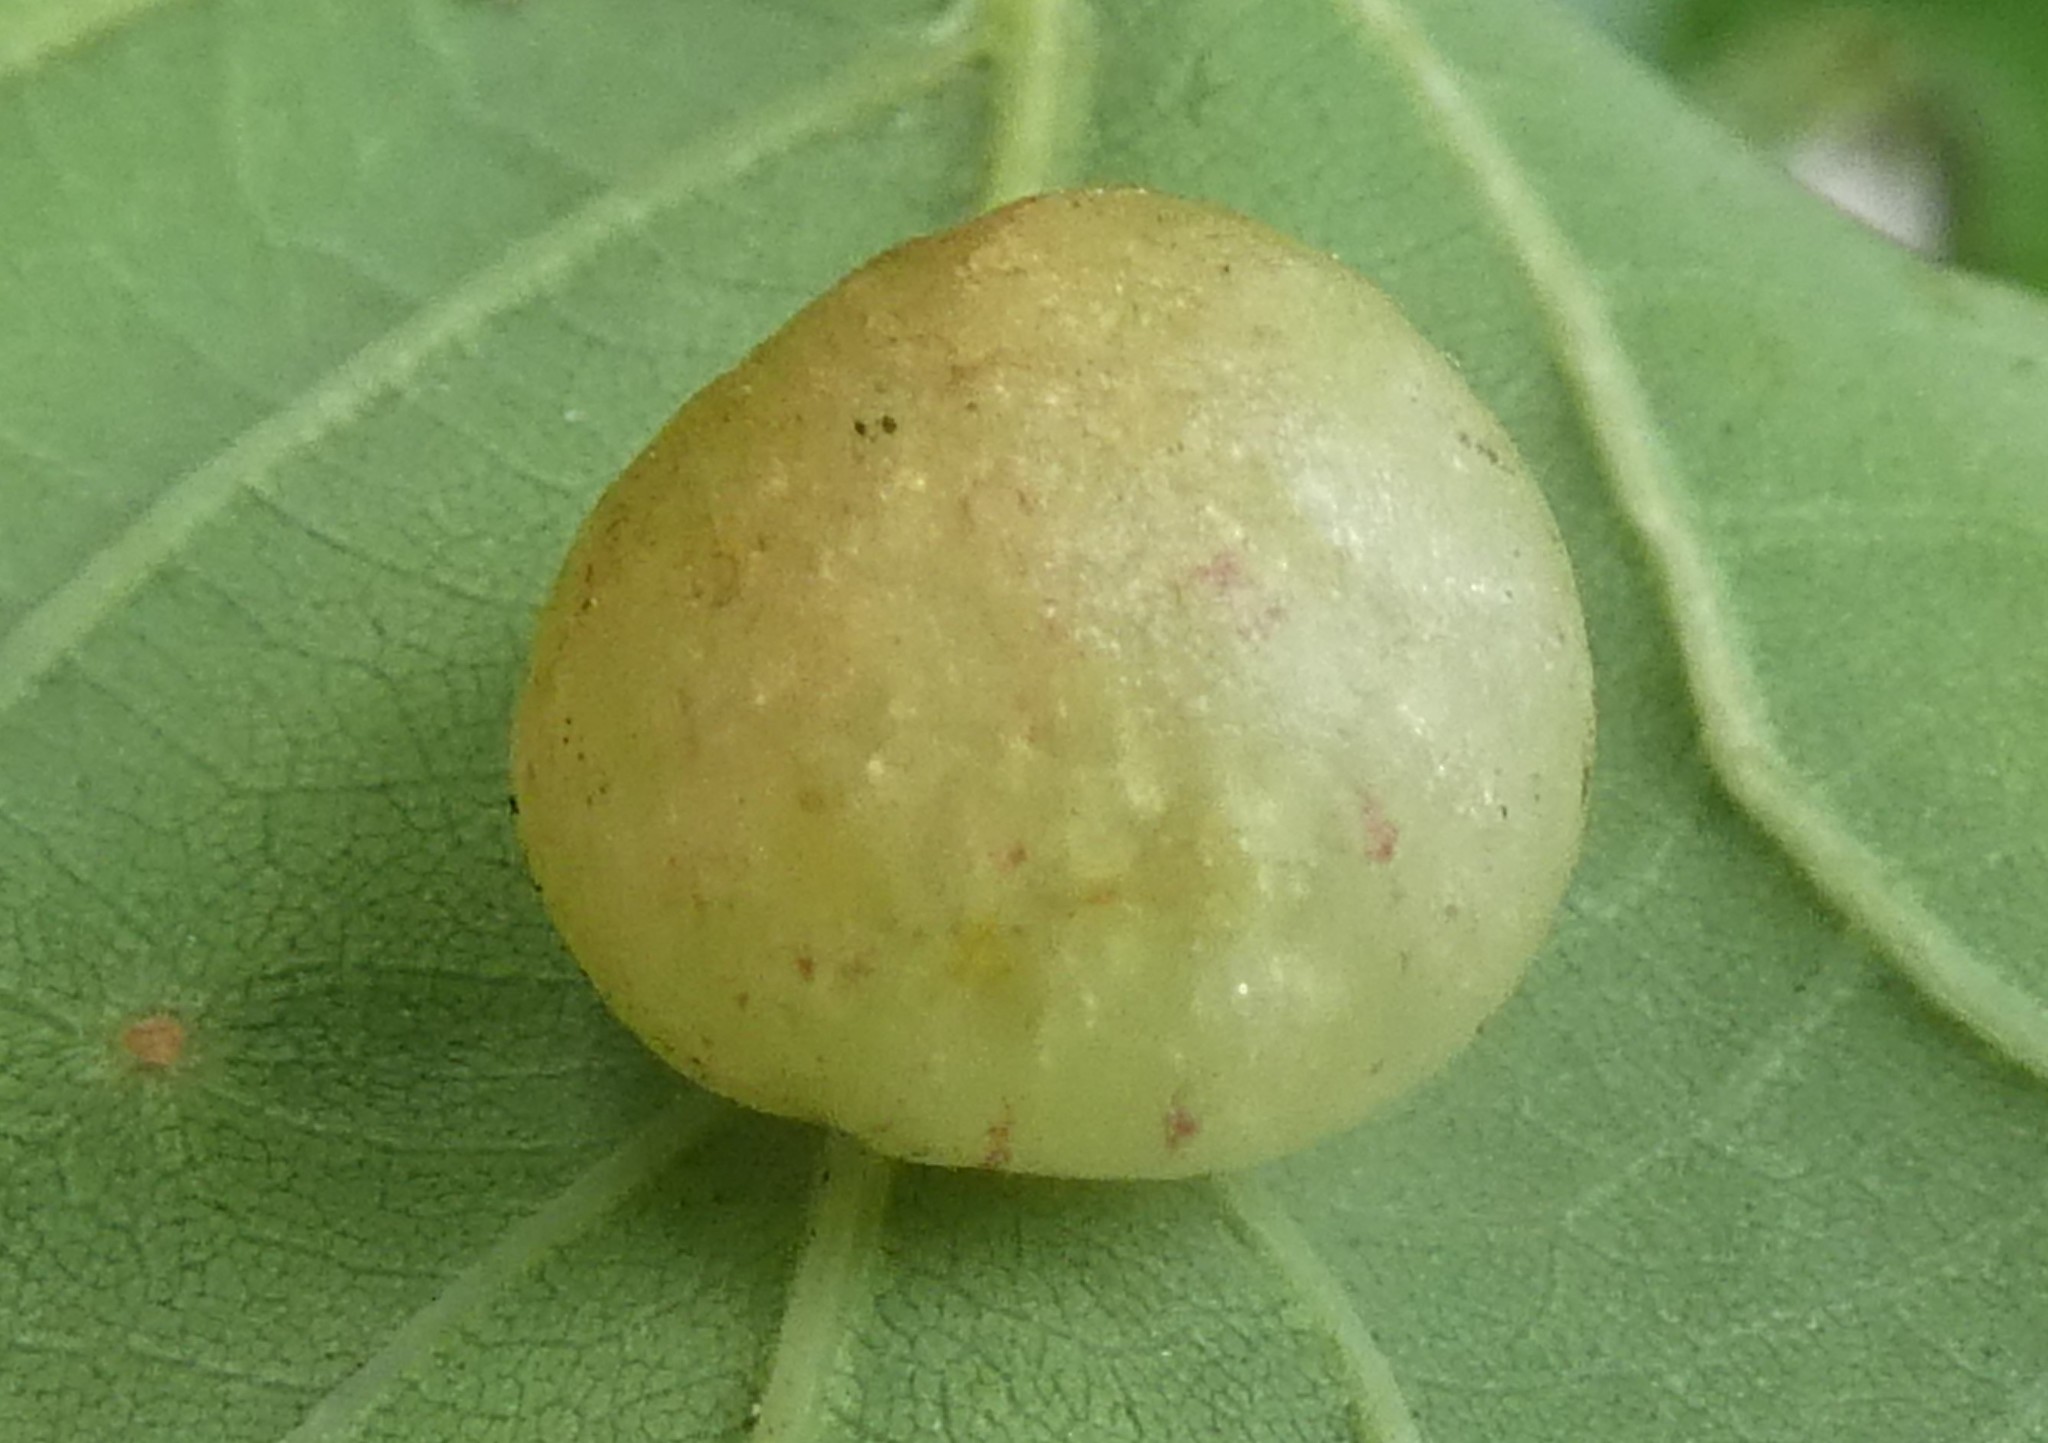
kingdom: Animalia
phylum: Arthropoda
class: Insecta
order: Hymenoptera
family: Cynipidae
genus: Neuroterus
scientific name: Neuroterus quercusbaccarum
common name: Common spangle gall
